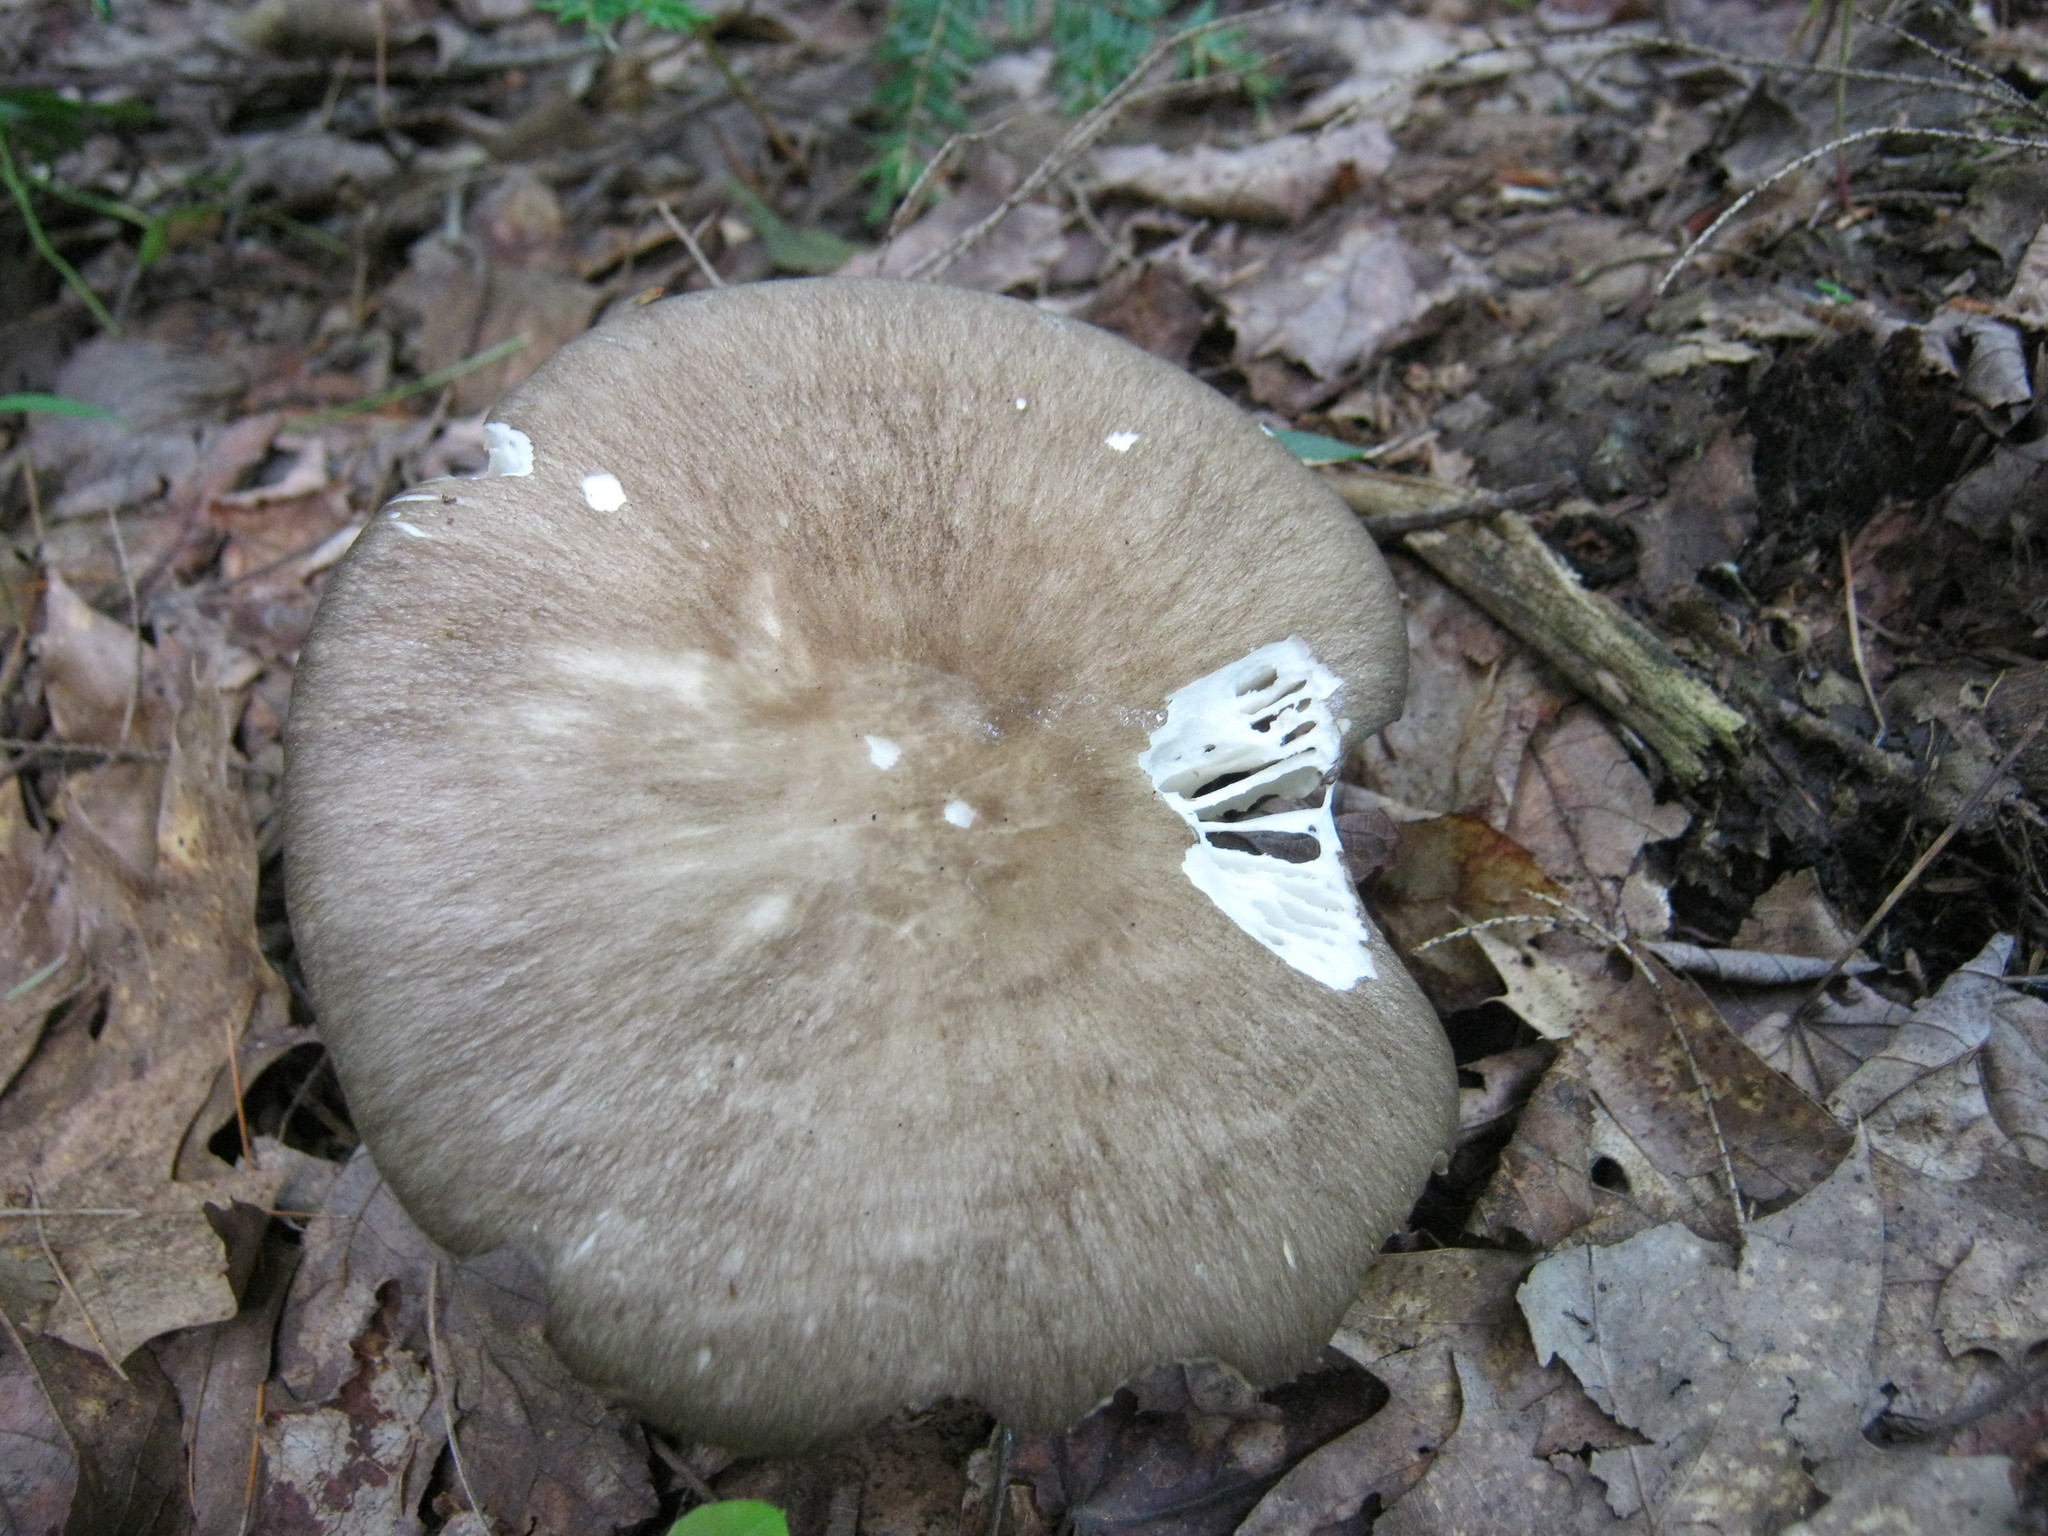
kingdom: Fungi
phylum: Basidiomycota
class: Agaricomycetes
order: Agaricales
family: Tricholomataceae
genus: Megacollybia
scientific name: Megacollybia rodmanii
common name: Eastern american platterful mushroom
